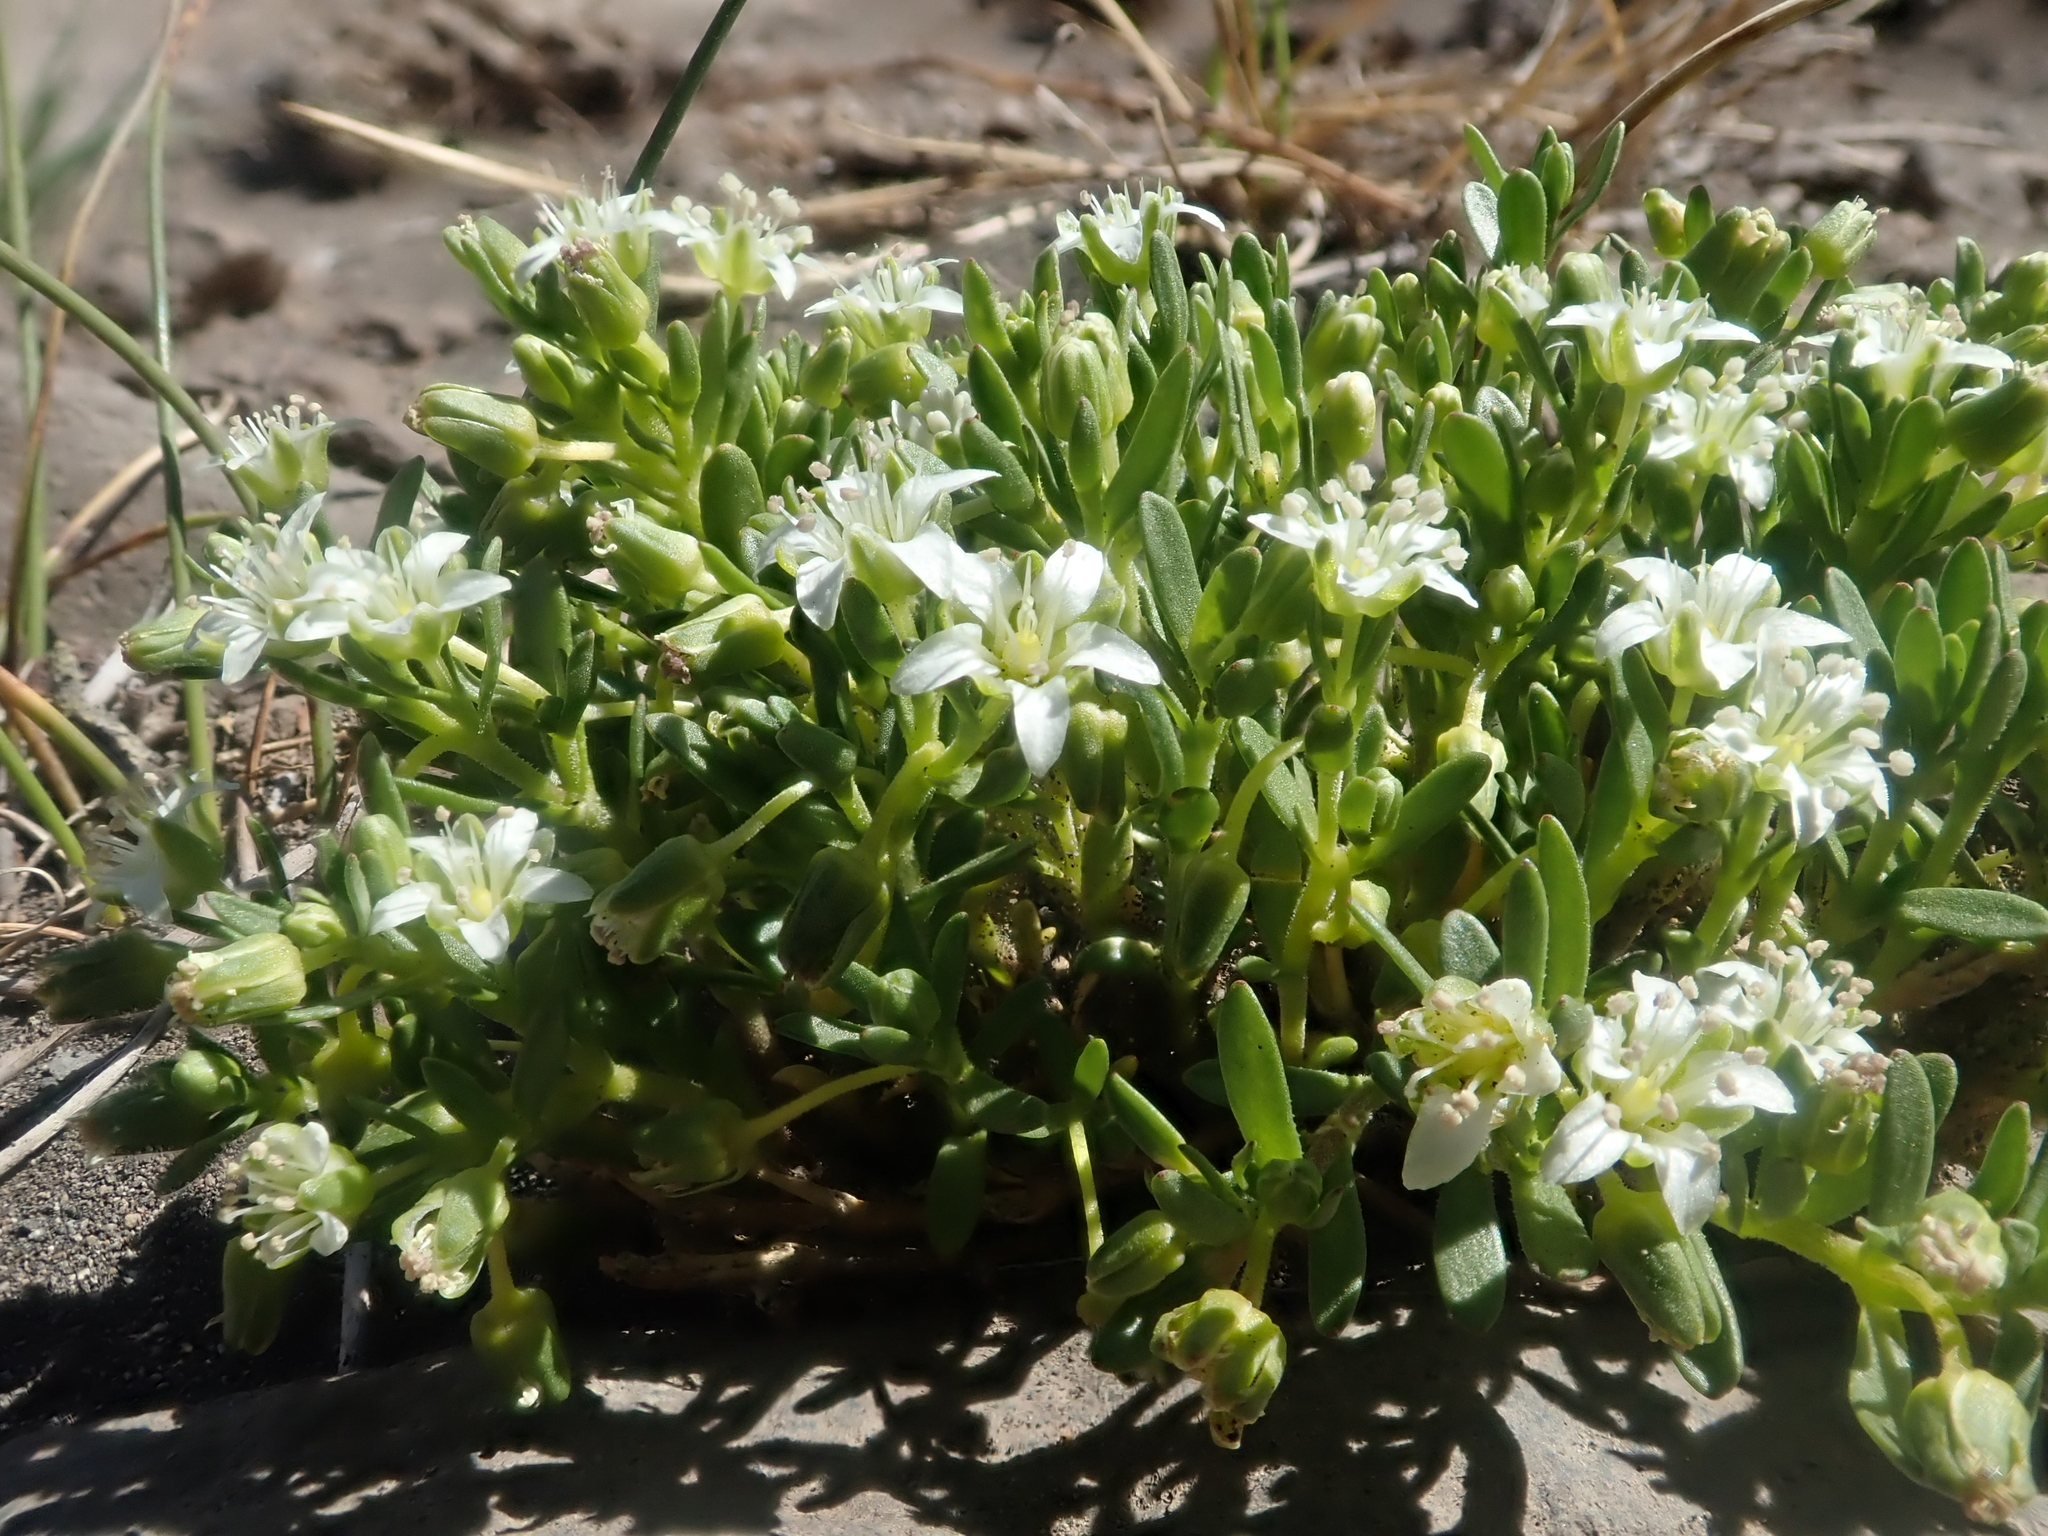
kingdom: Plantae
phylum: Tracheophyta
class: Magnoliopsida
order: Caryophyllales
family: Caryophyllaceae
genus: Arenaria
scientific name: Arenaria serpens
